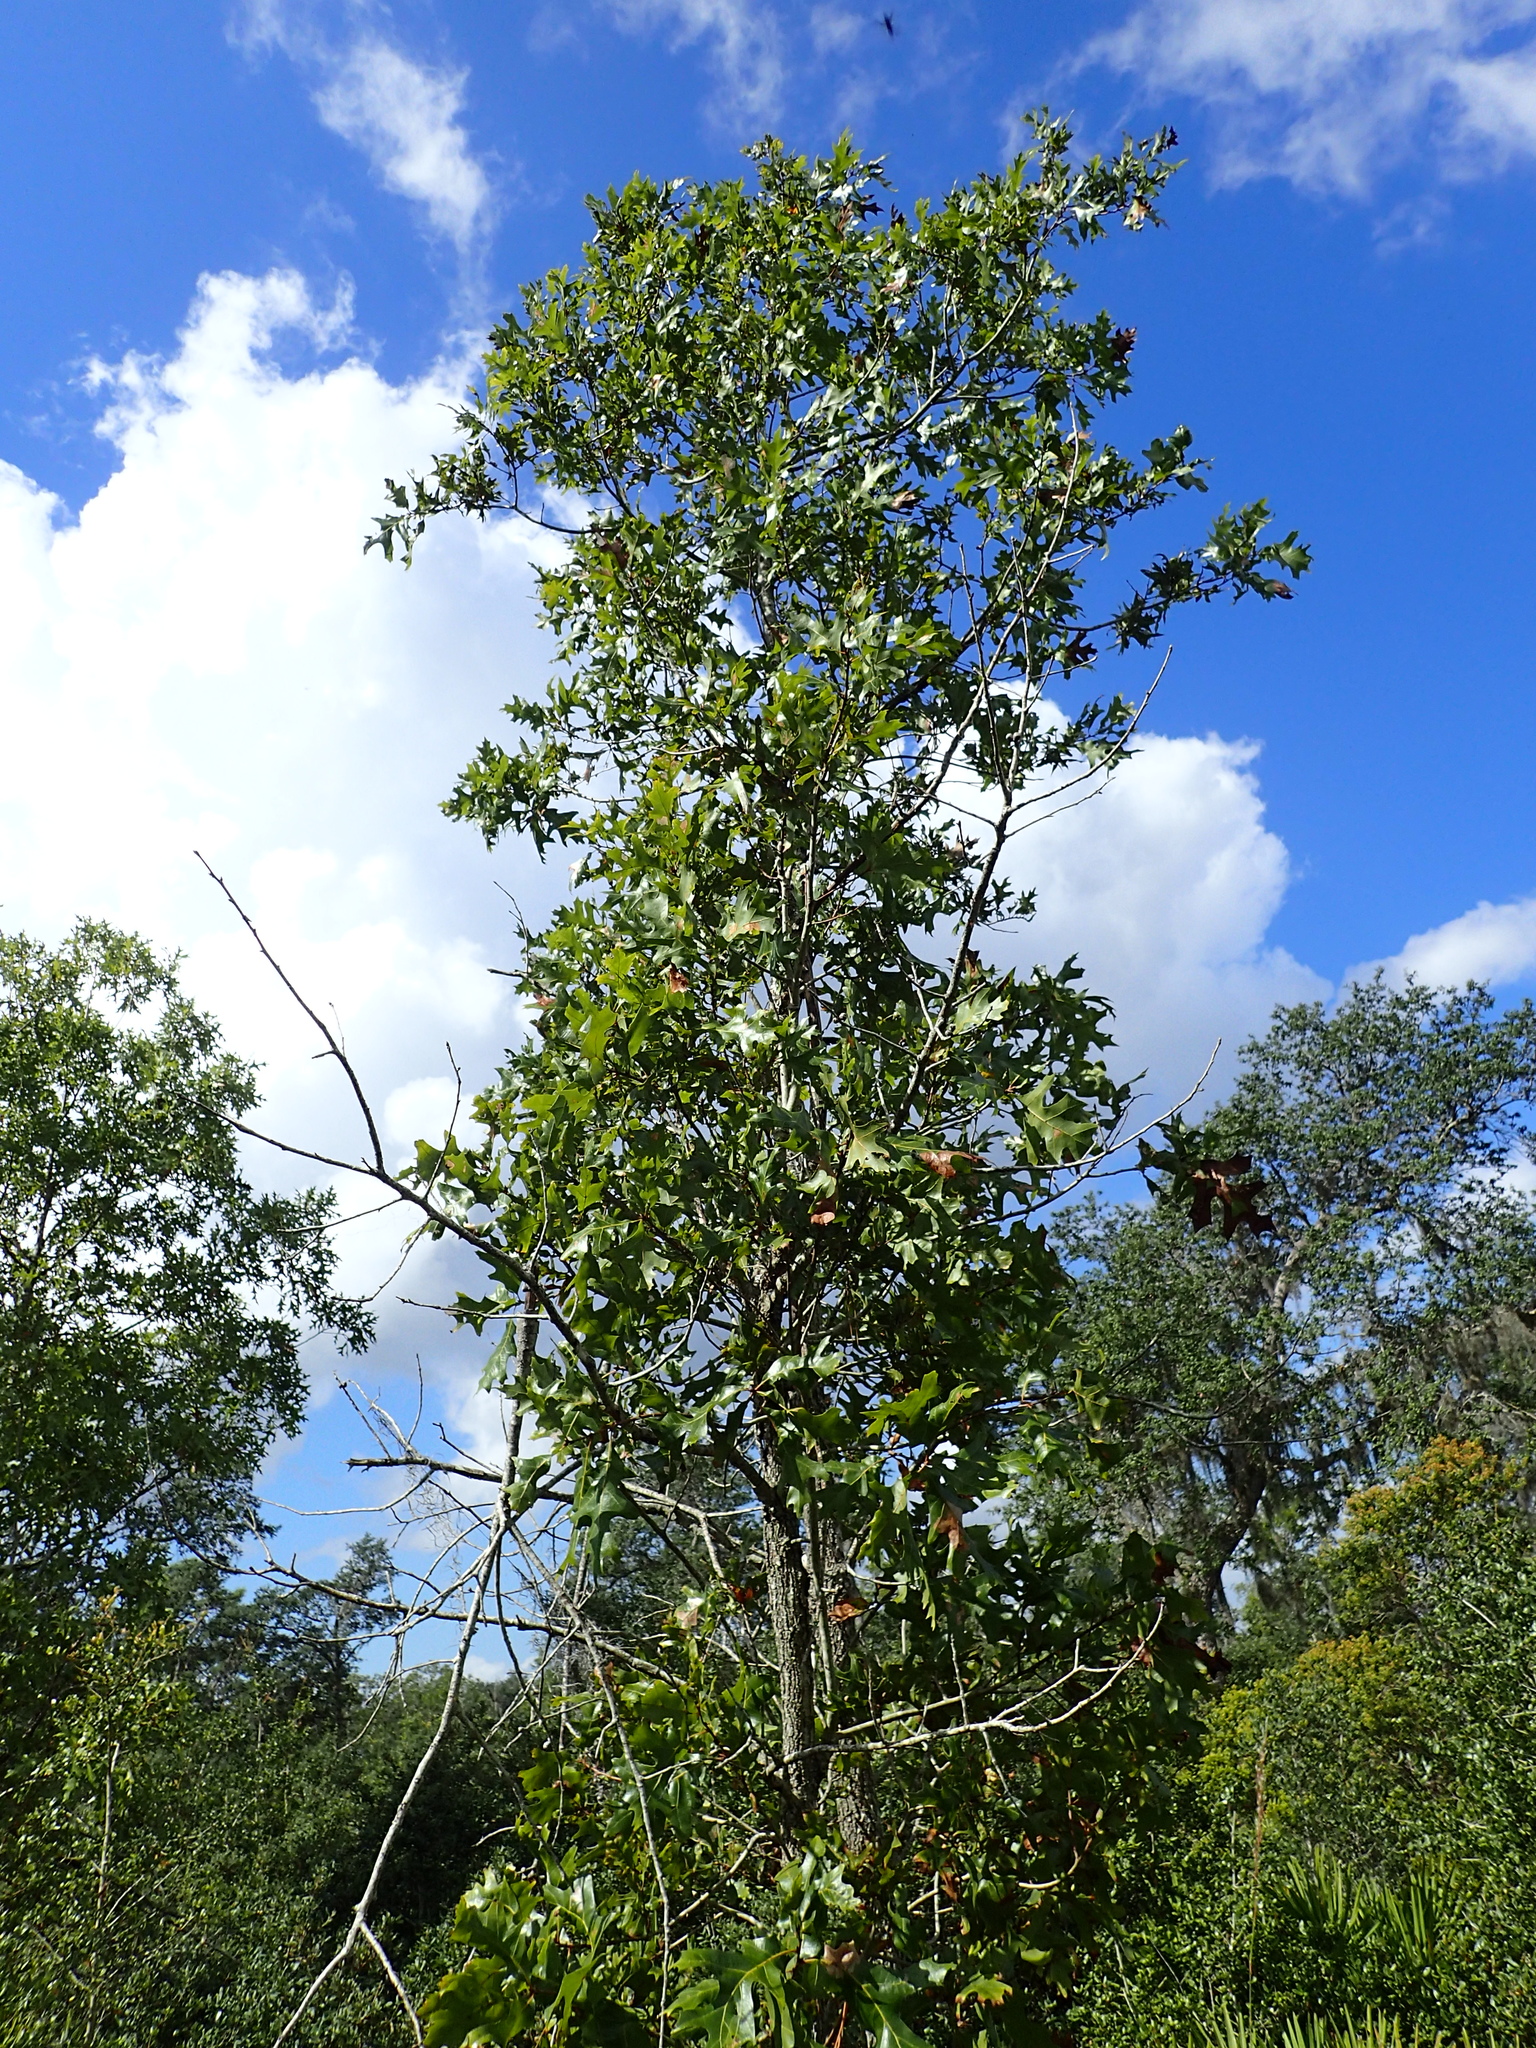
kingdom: Plantae
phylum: Tracheophyta
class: Magnoliopsida
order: Fagales
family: Fagaceae
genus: Quercus
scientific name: Quercus laevis
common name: Turkey oak
